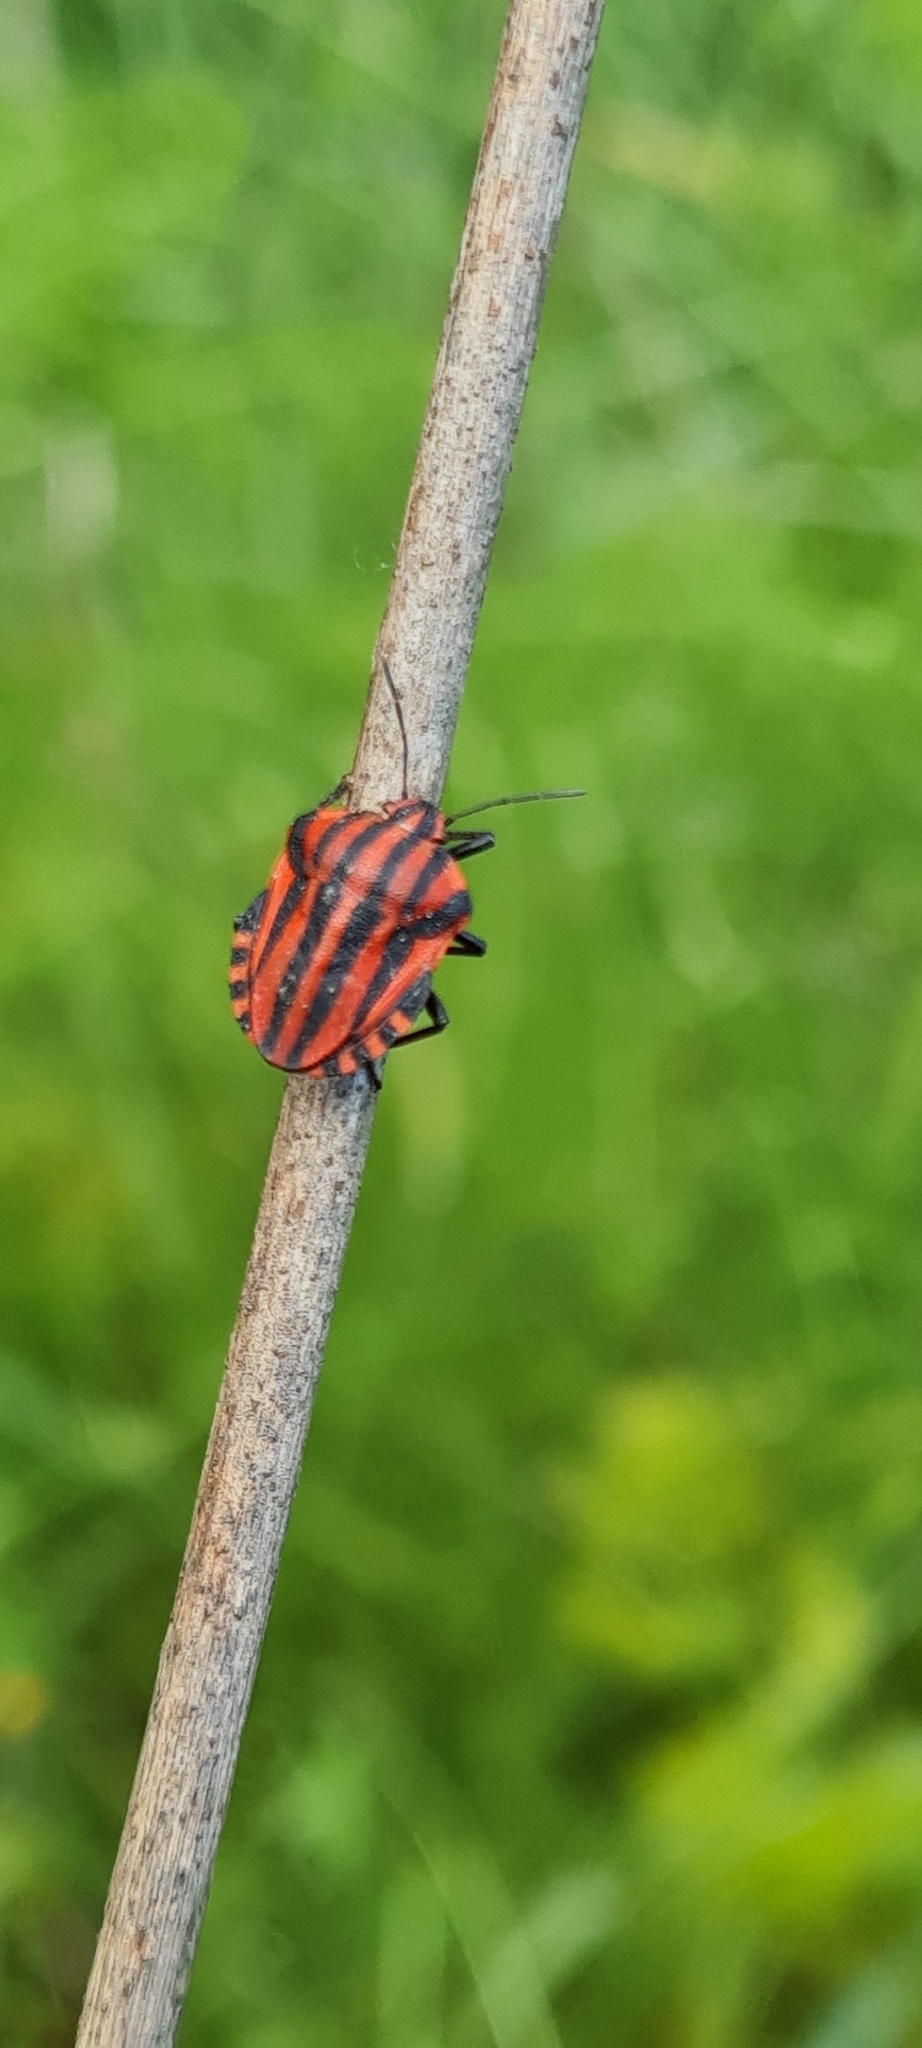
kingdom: Animalia
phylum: Arthropoda
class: Insecta
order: Hemiptera
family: Pentatomidae
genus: Graphosoma
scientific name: Graphosoma italicum
